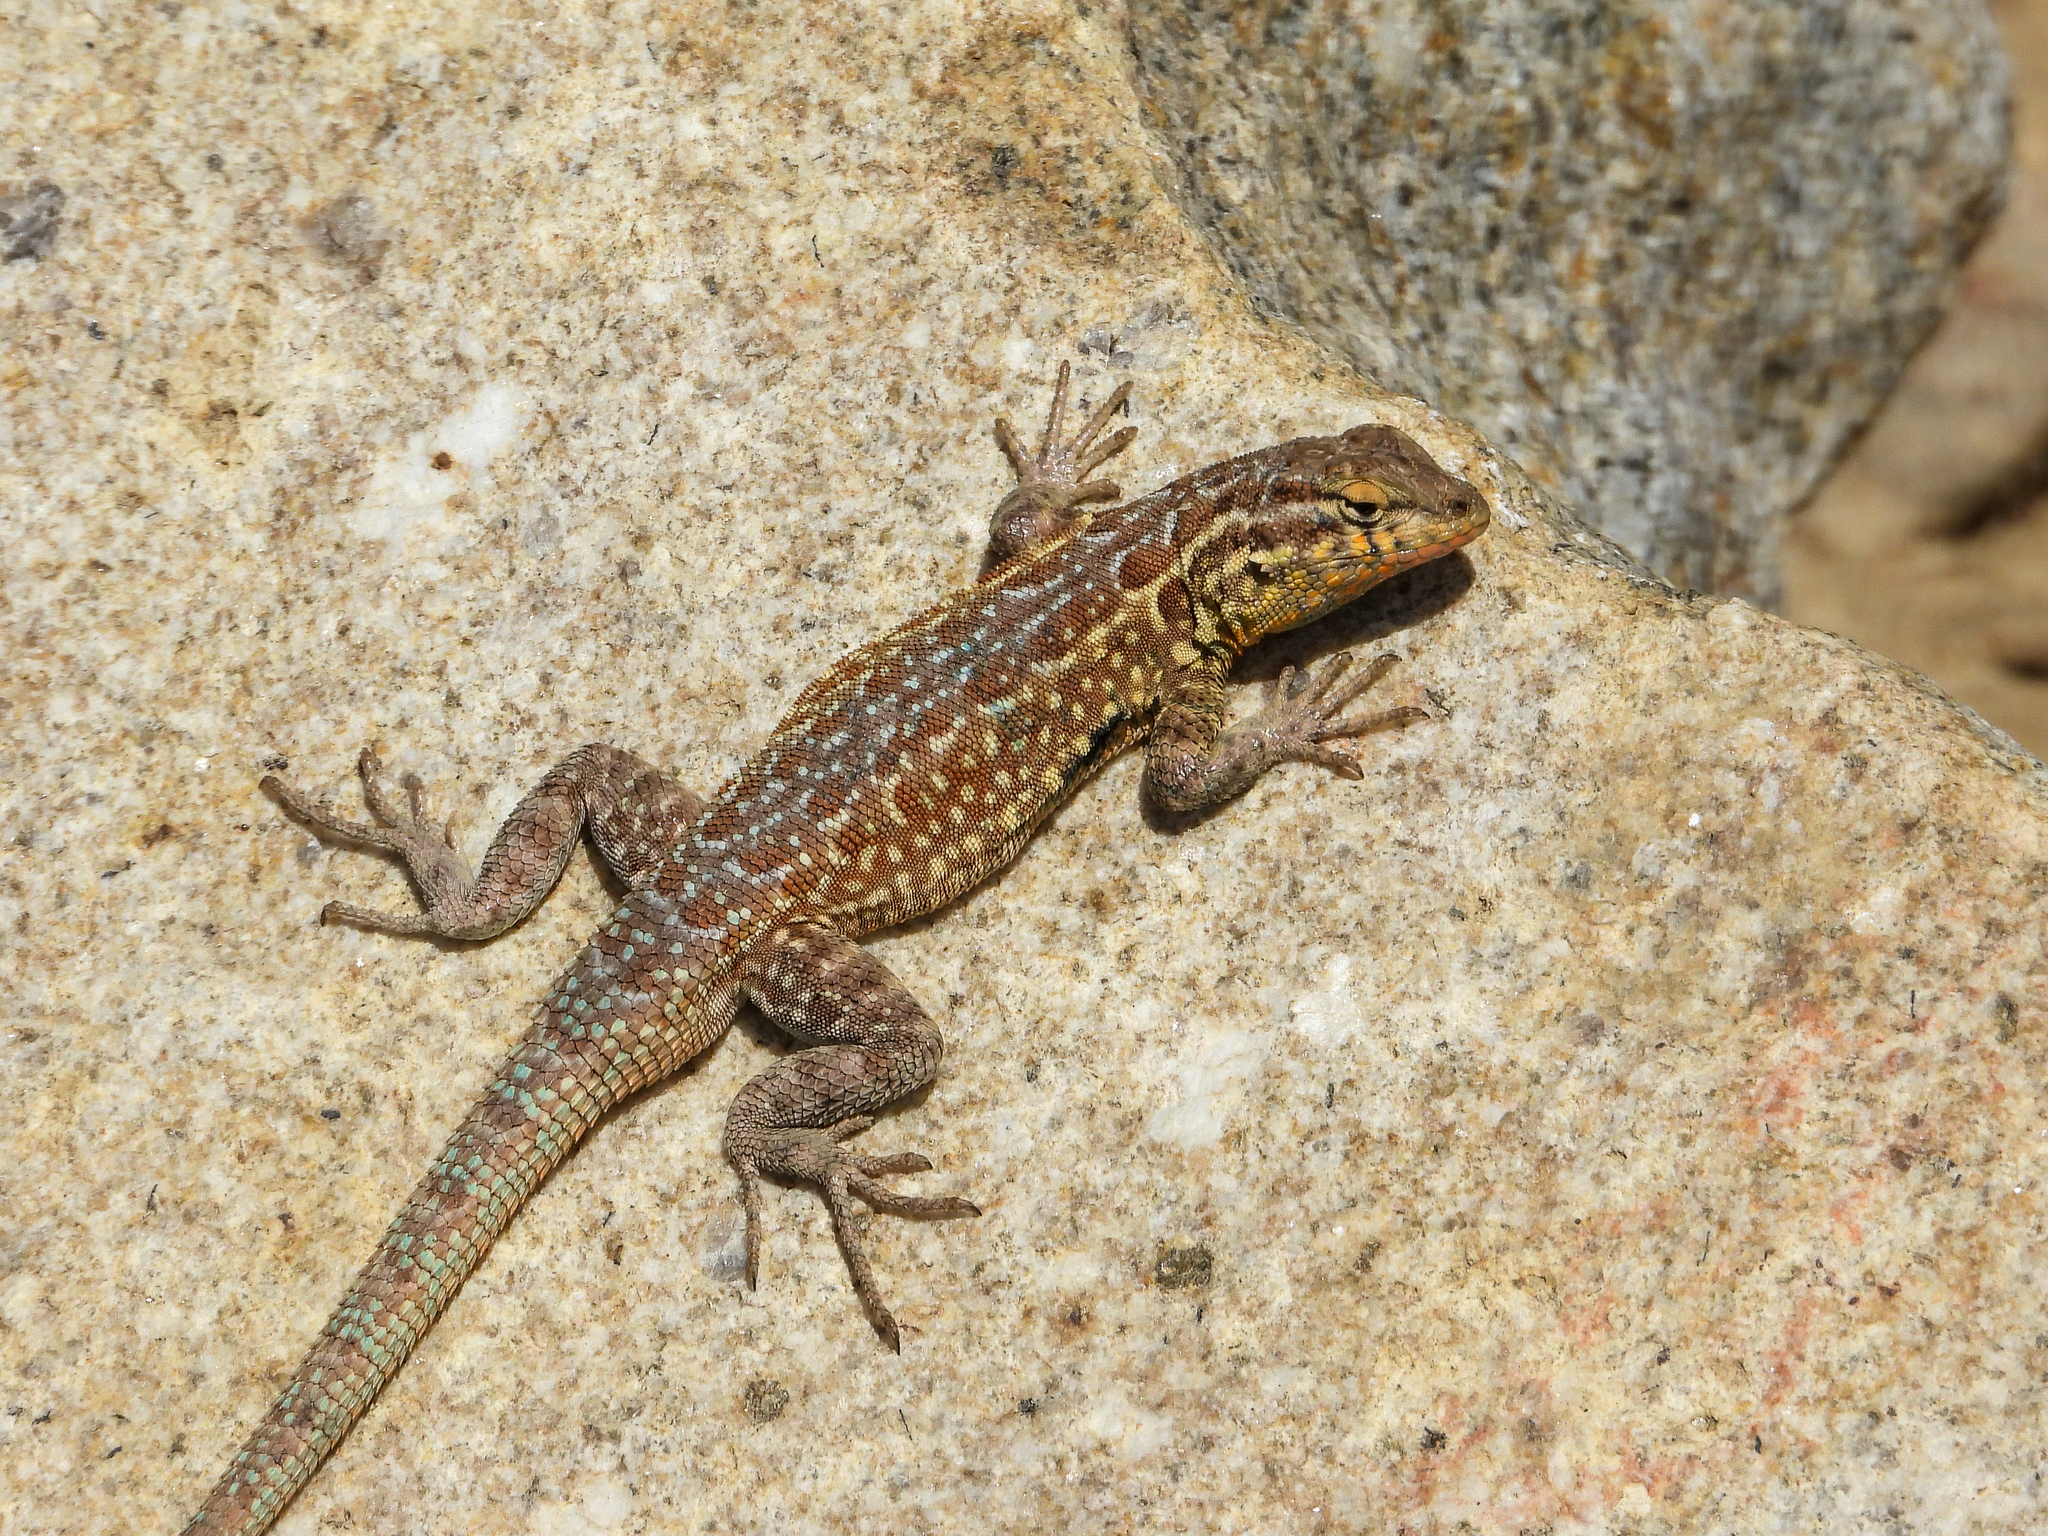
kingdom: Animalia
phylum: Chordata
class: Squamata
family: Phrynosomatidae
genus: Uta
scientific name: Uta stansburiana
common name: Side-blotched lizard
